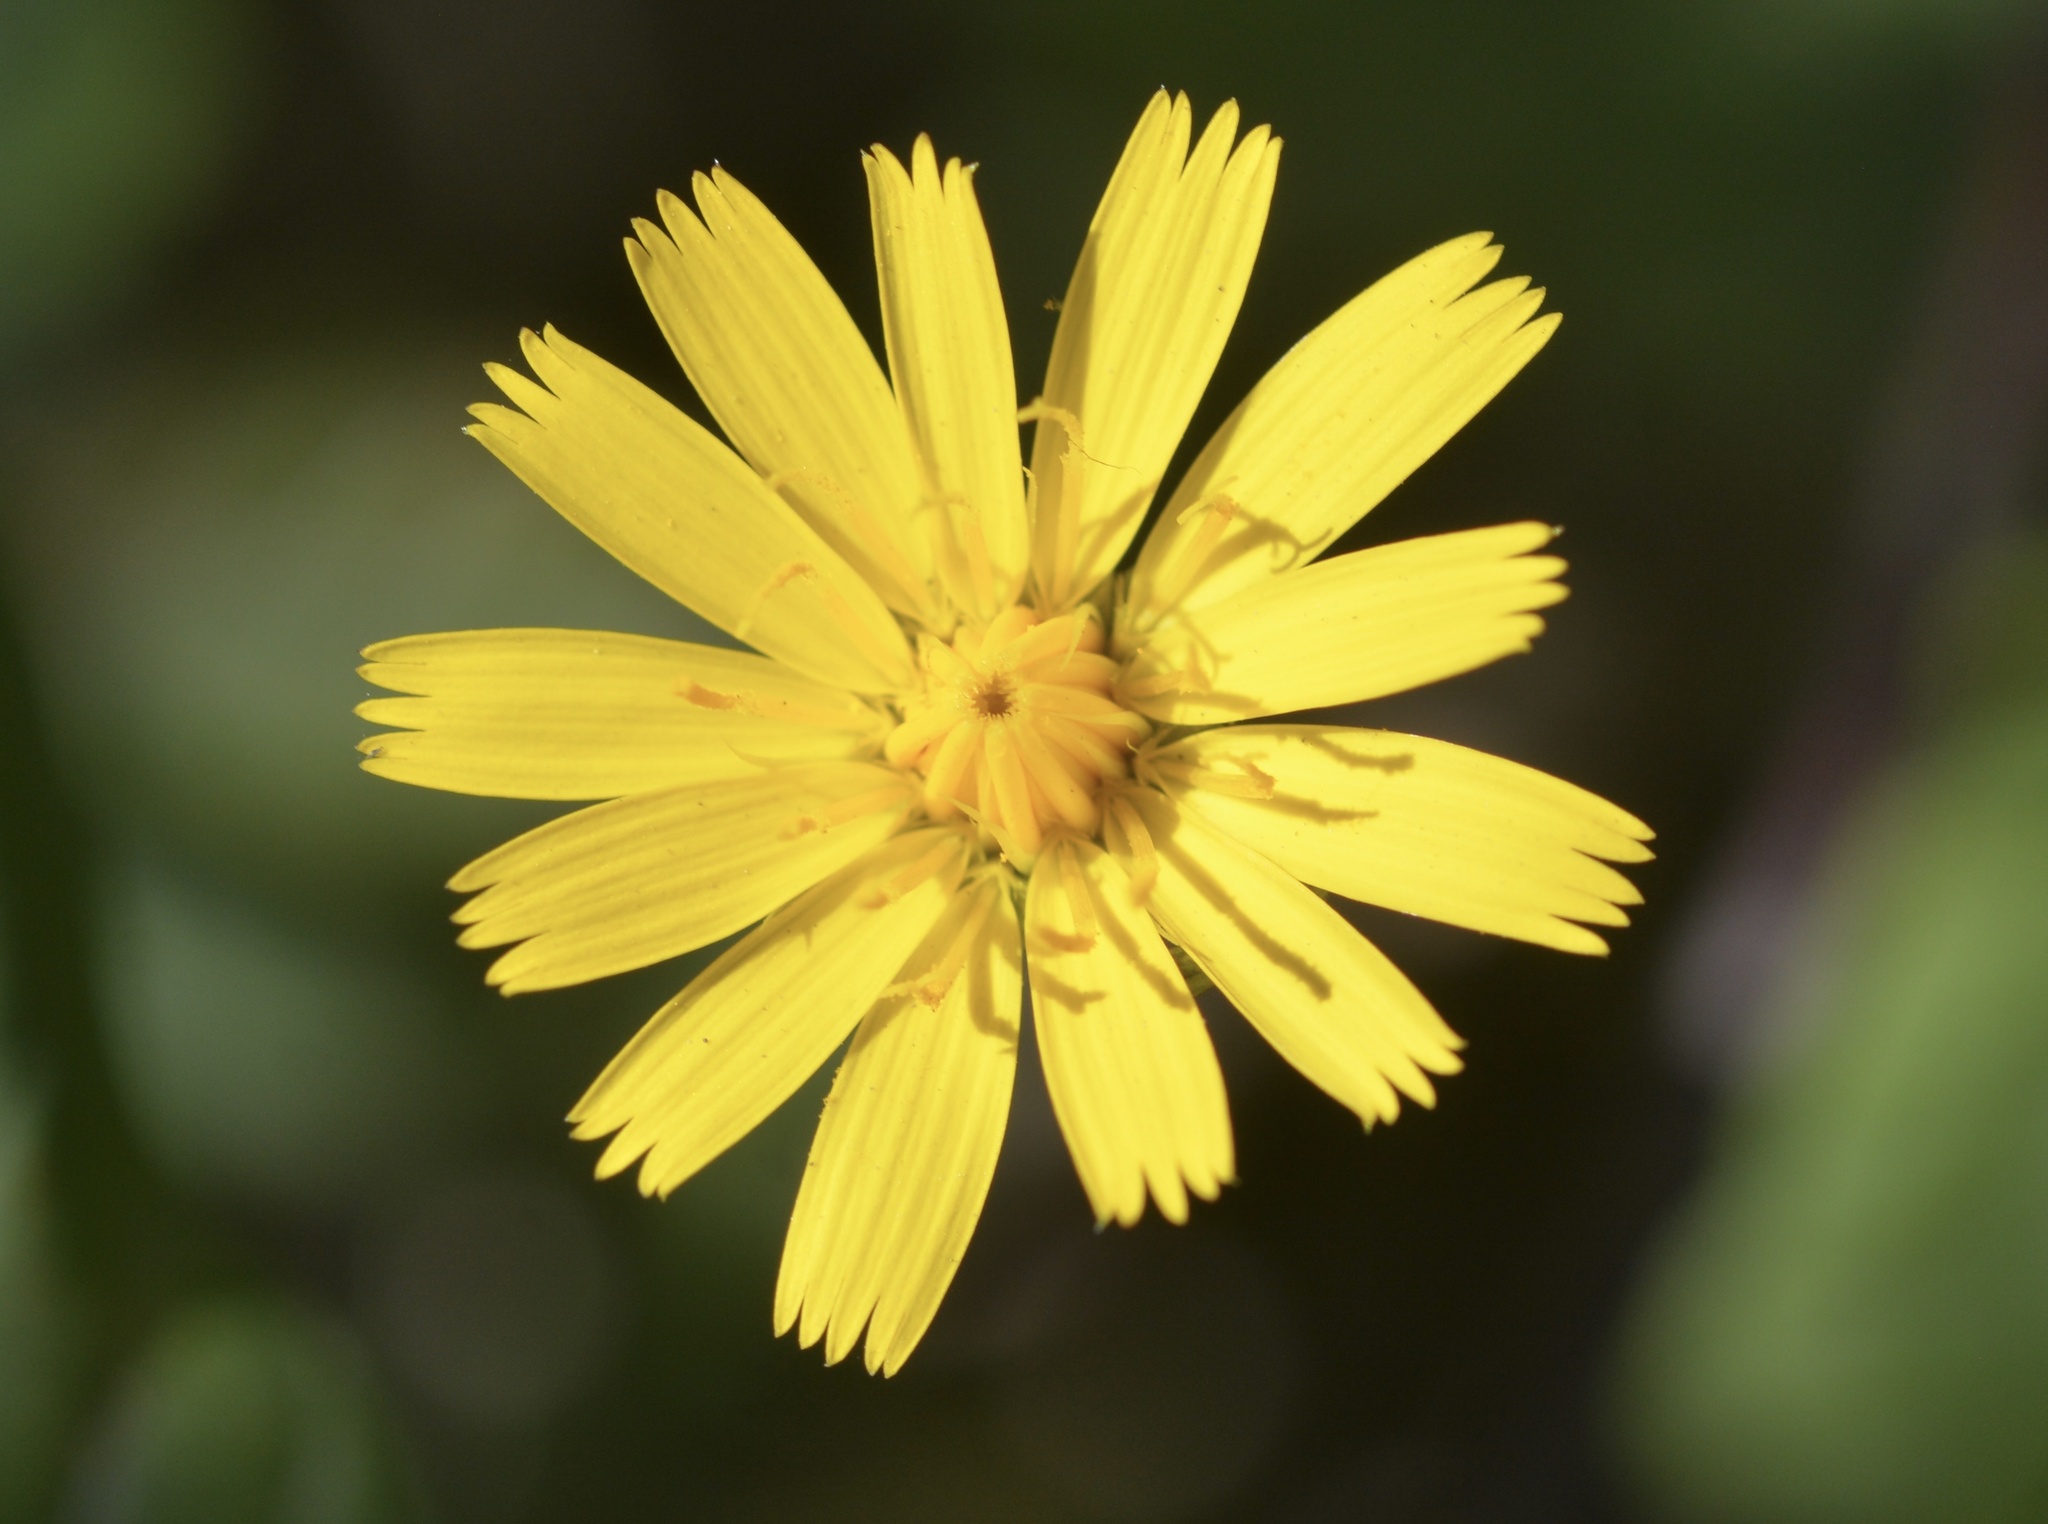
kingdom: Plantae
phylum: Tracheophyta
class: Magnoliopsida
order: Asterales
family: Asteraceae
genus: Hypochaeris
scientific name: Hypochaeris radicata
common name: Flatweed
